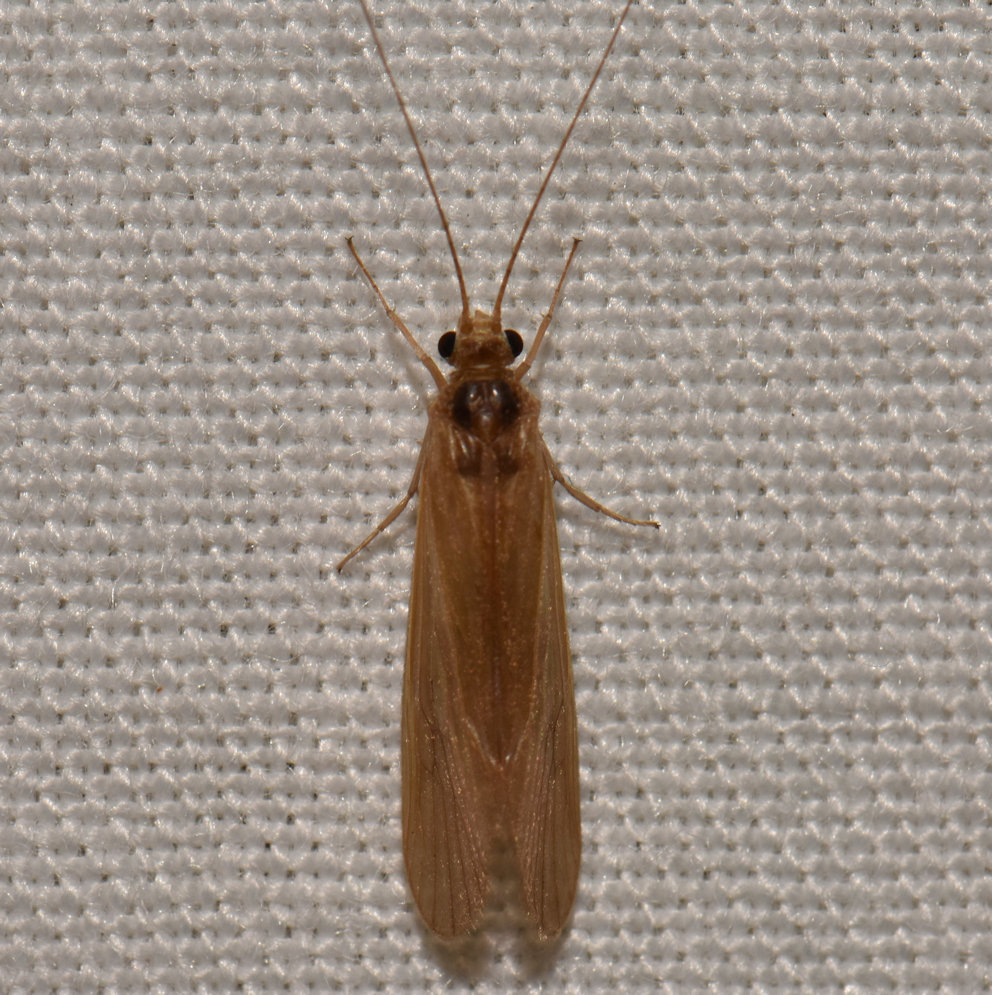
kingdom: Animalia
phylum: Arthropoda
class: Insecta
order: Trichoptera
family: Hydropsychidae
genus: Potamyia
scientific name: Potamyia flava
